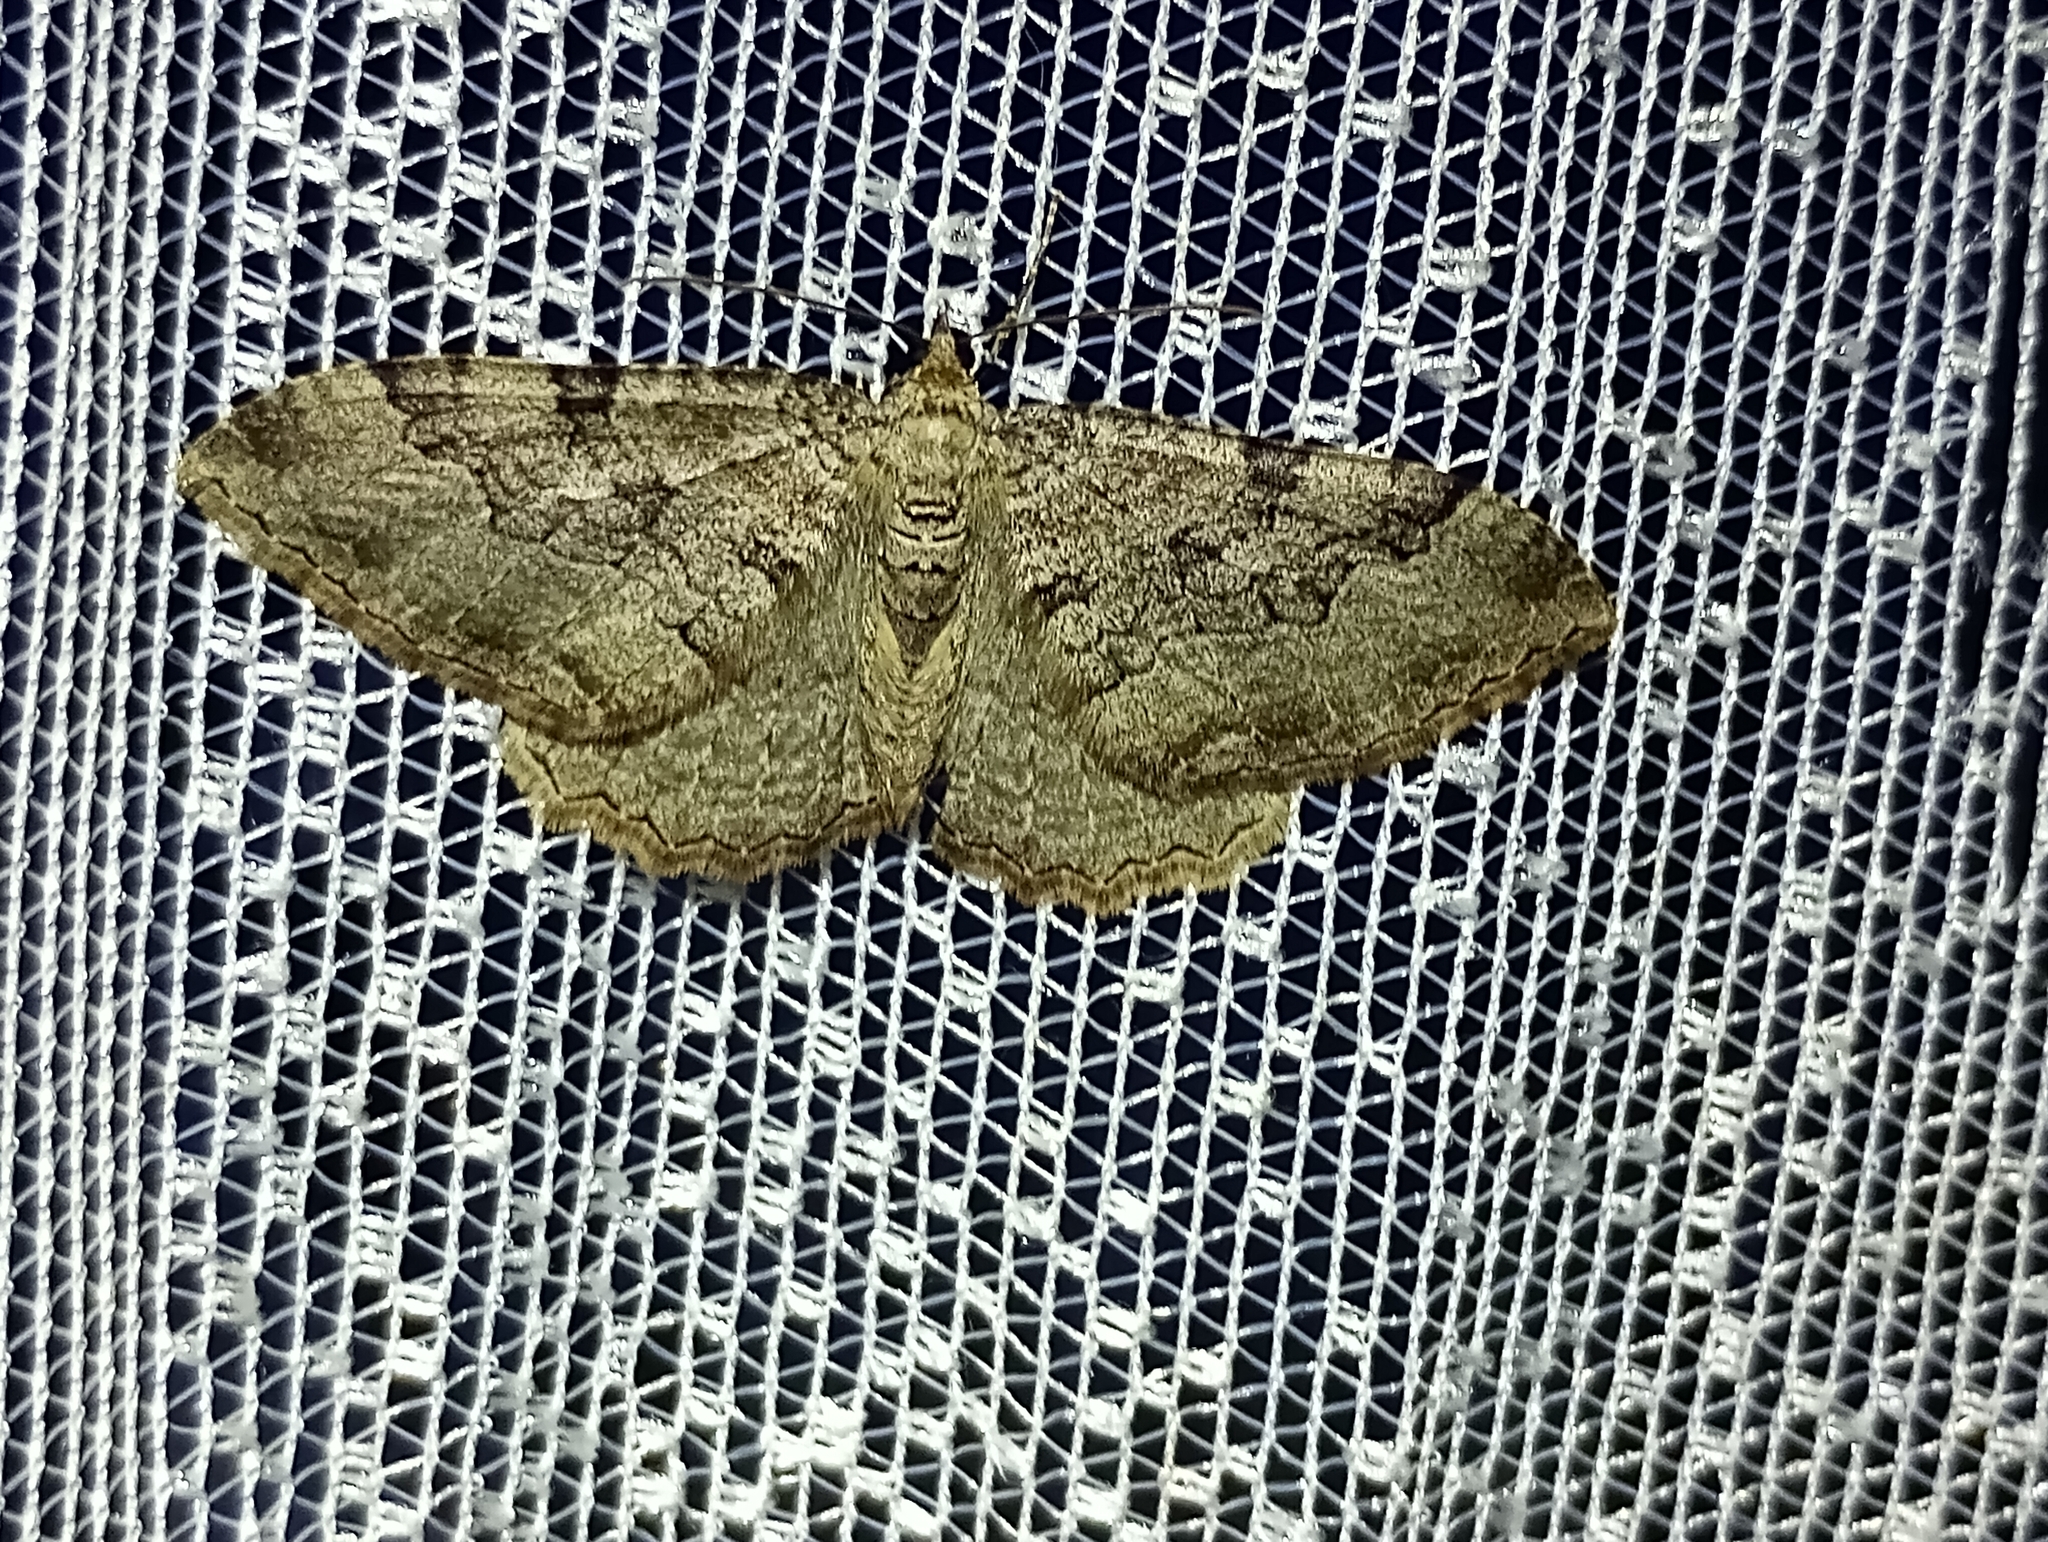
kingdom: Animalia
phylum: Arthropoda
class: Insecta
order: Lepidoptera
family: Geometridae
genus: Rheumaptera
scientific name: Rheumaptera Hydria cervinalis
